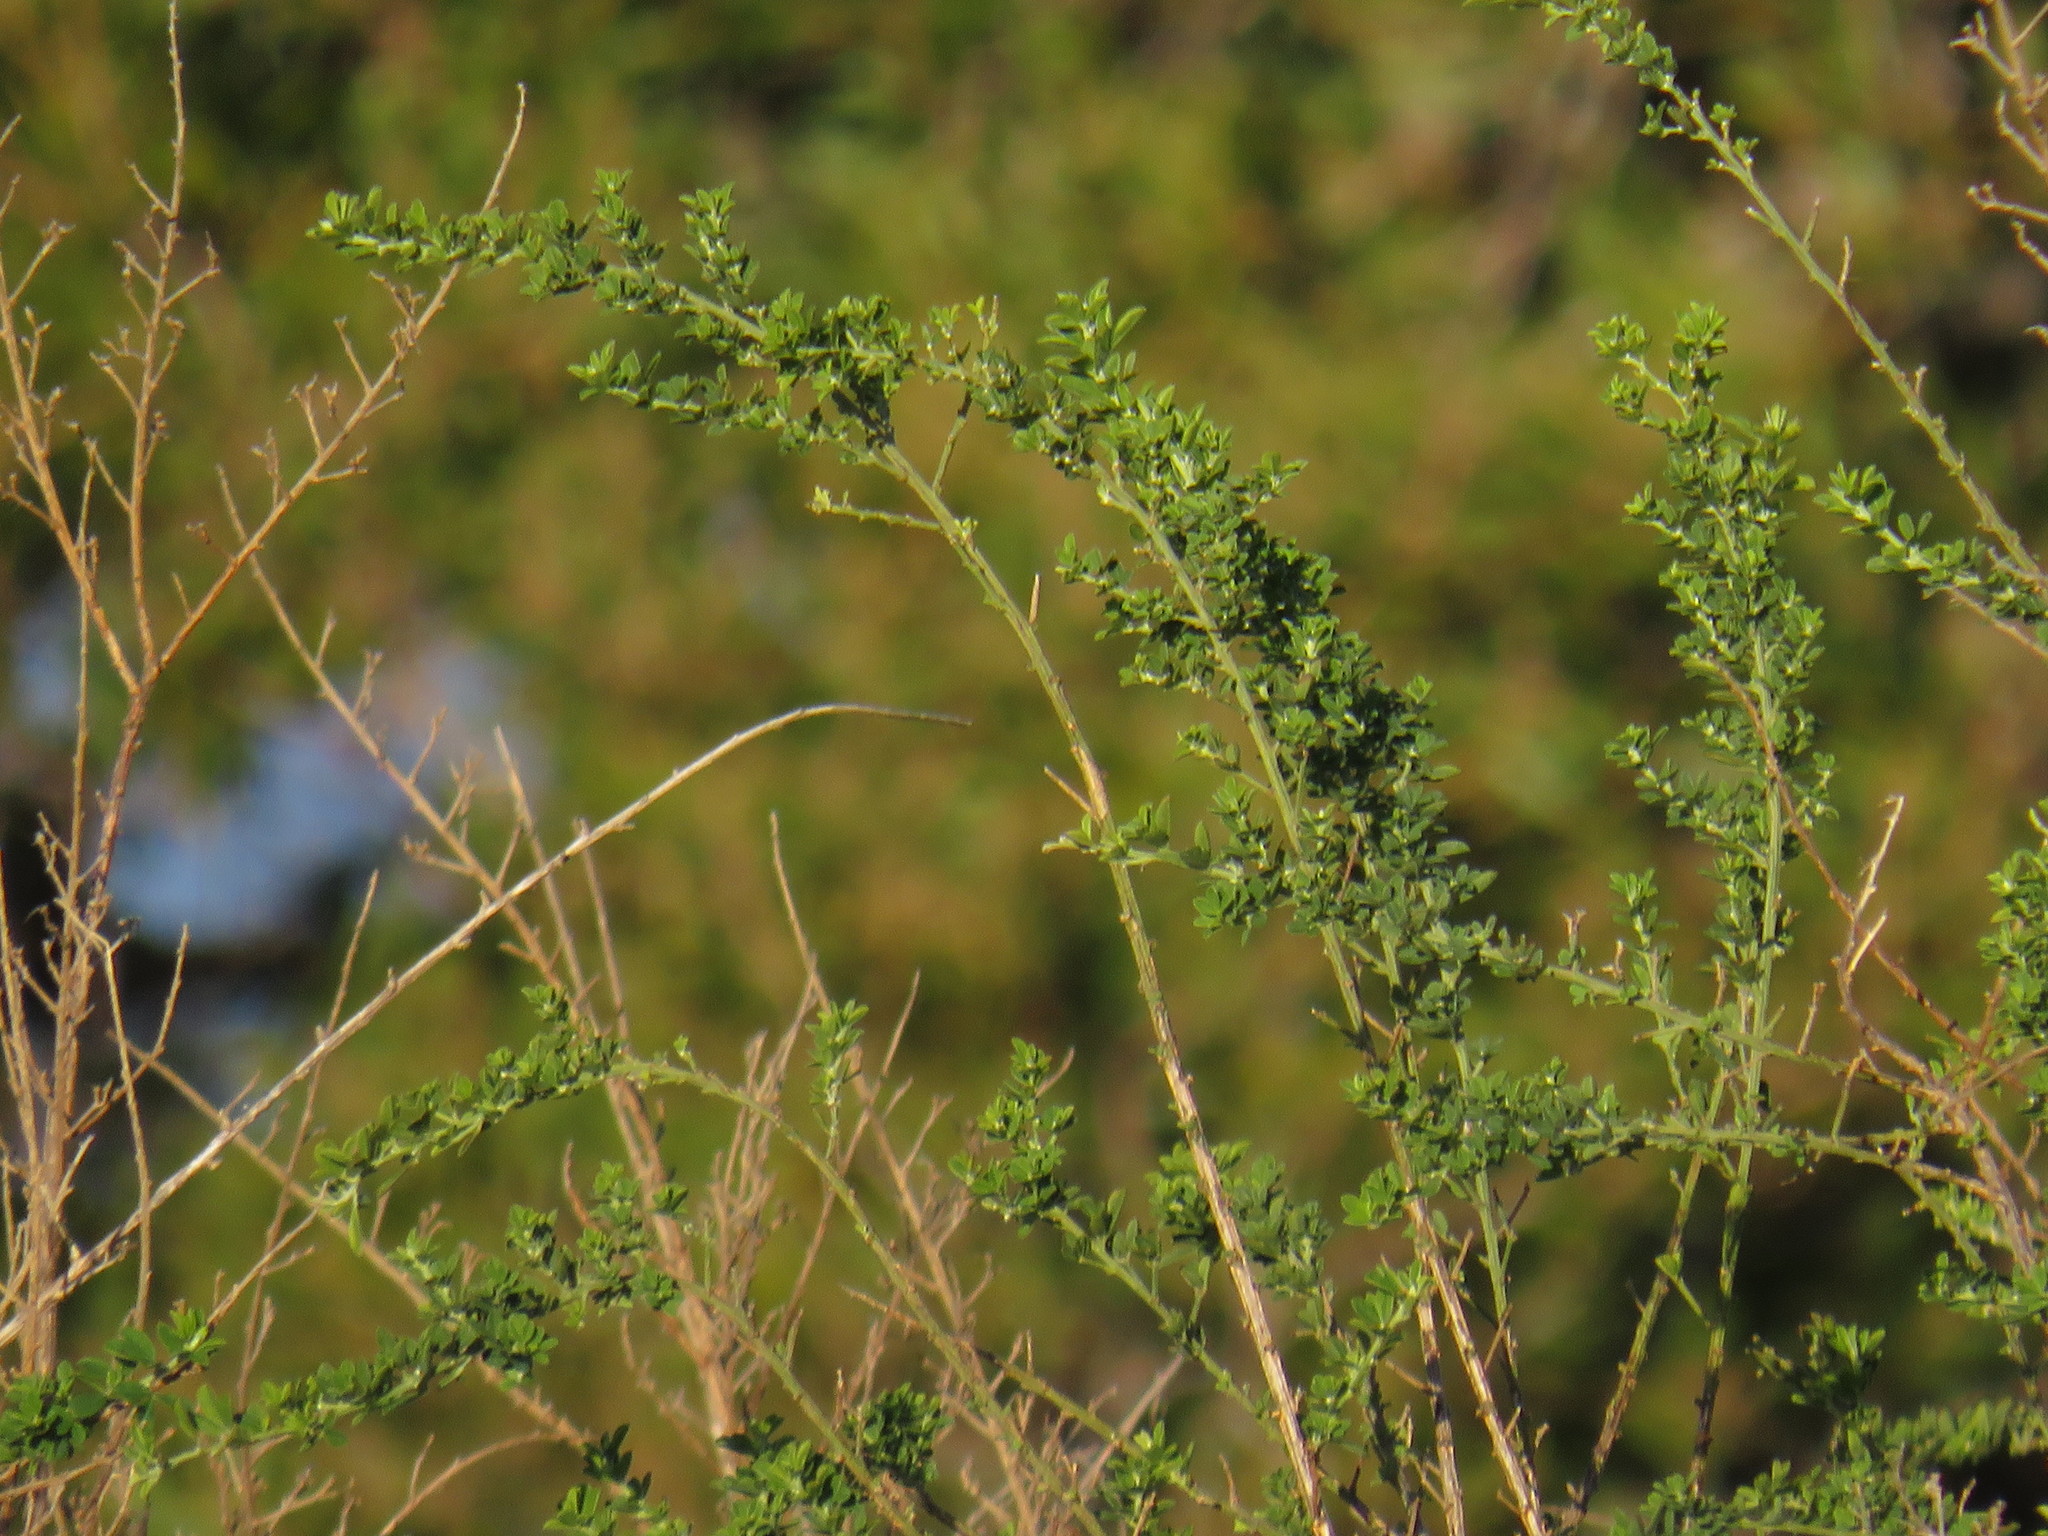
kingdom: Plantae
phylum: Tracheophyta
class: Magnoliopsida
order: Fabales
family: Fabaceae
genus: Genista
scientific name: Genista monspessulana
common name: Montpellier broom
